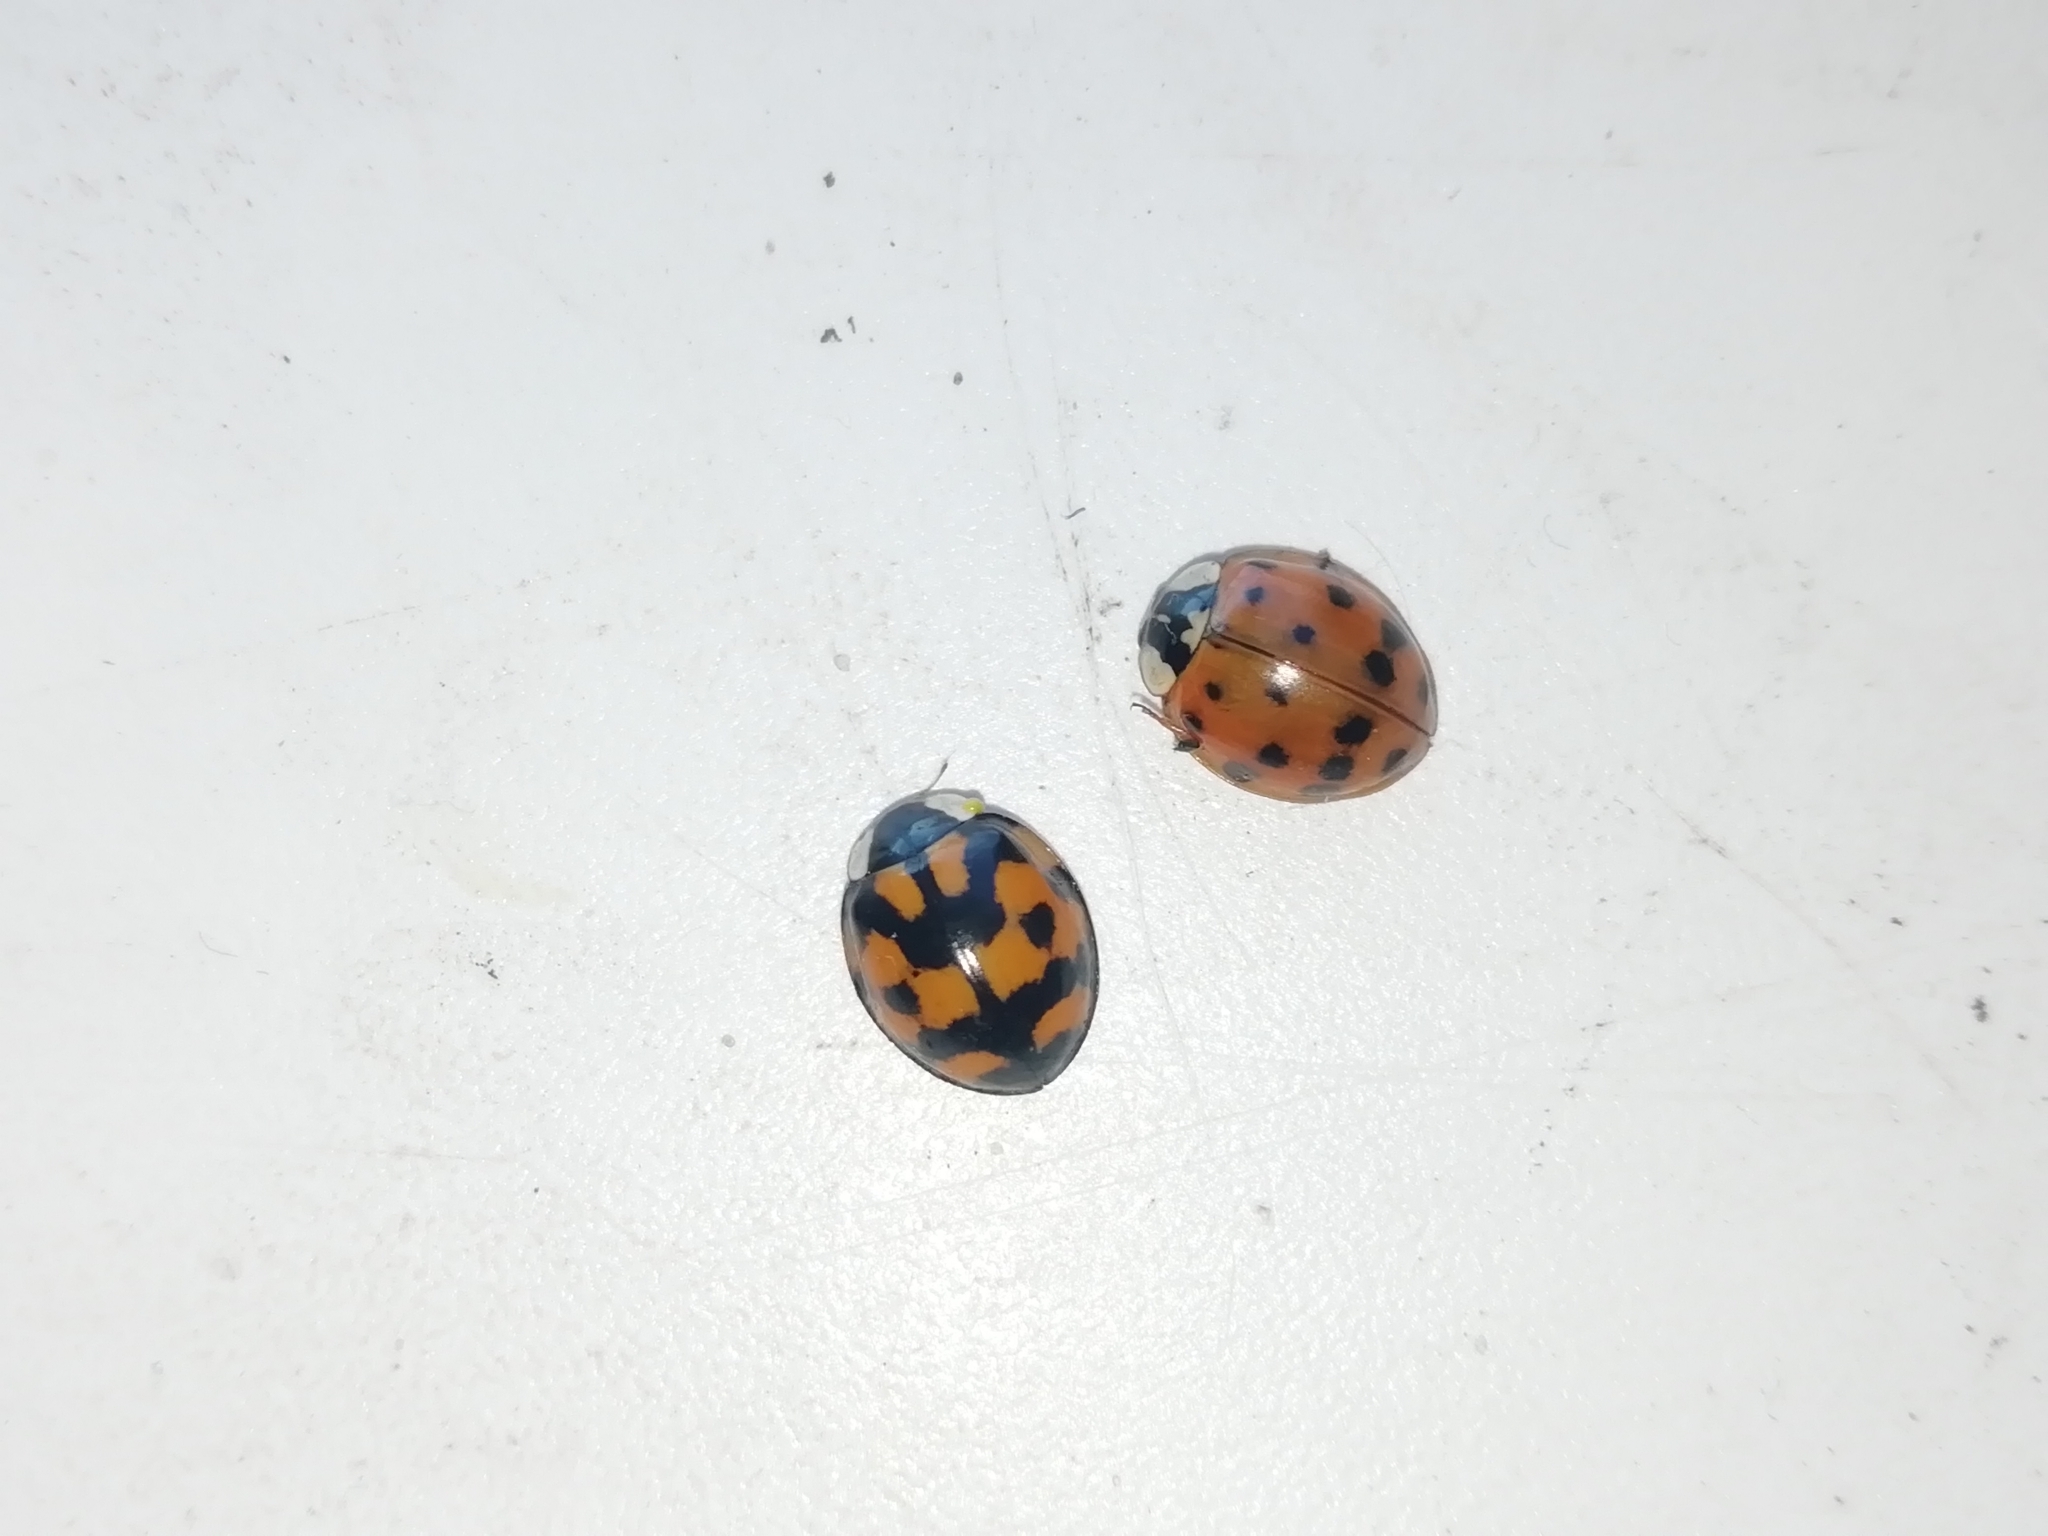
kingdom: Animalia
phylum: Arthropoda
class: Insecta
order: Coleoptera
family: Coccinellidae
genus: Harmonia
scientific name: Harmonia axyridis
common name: Harlequin ladybird
